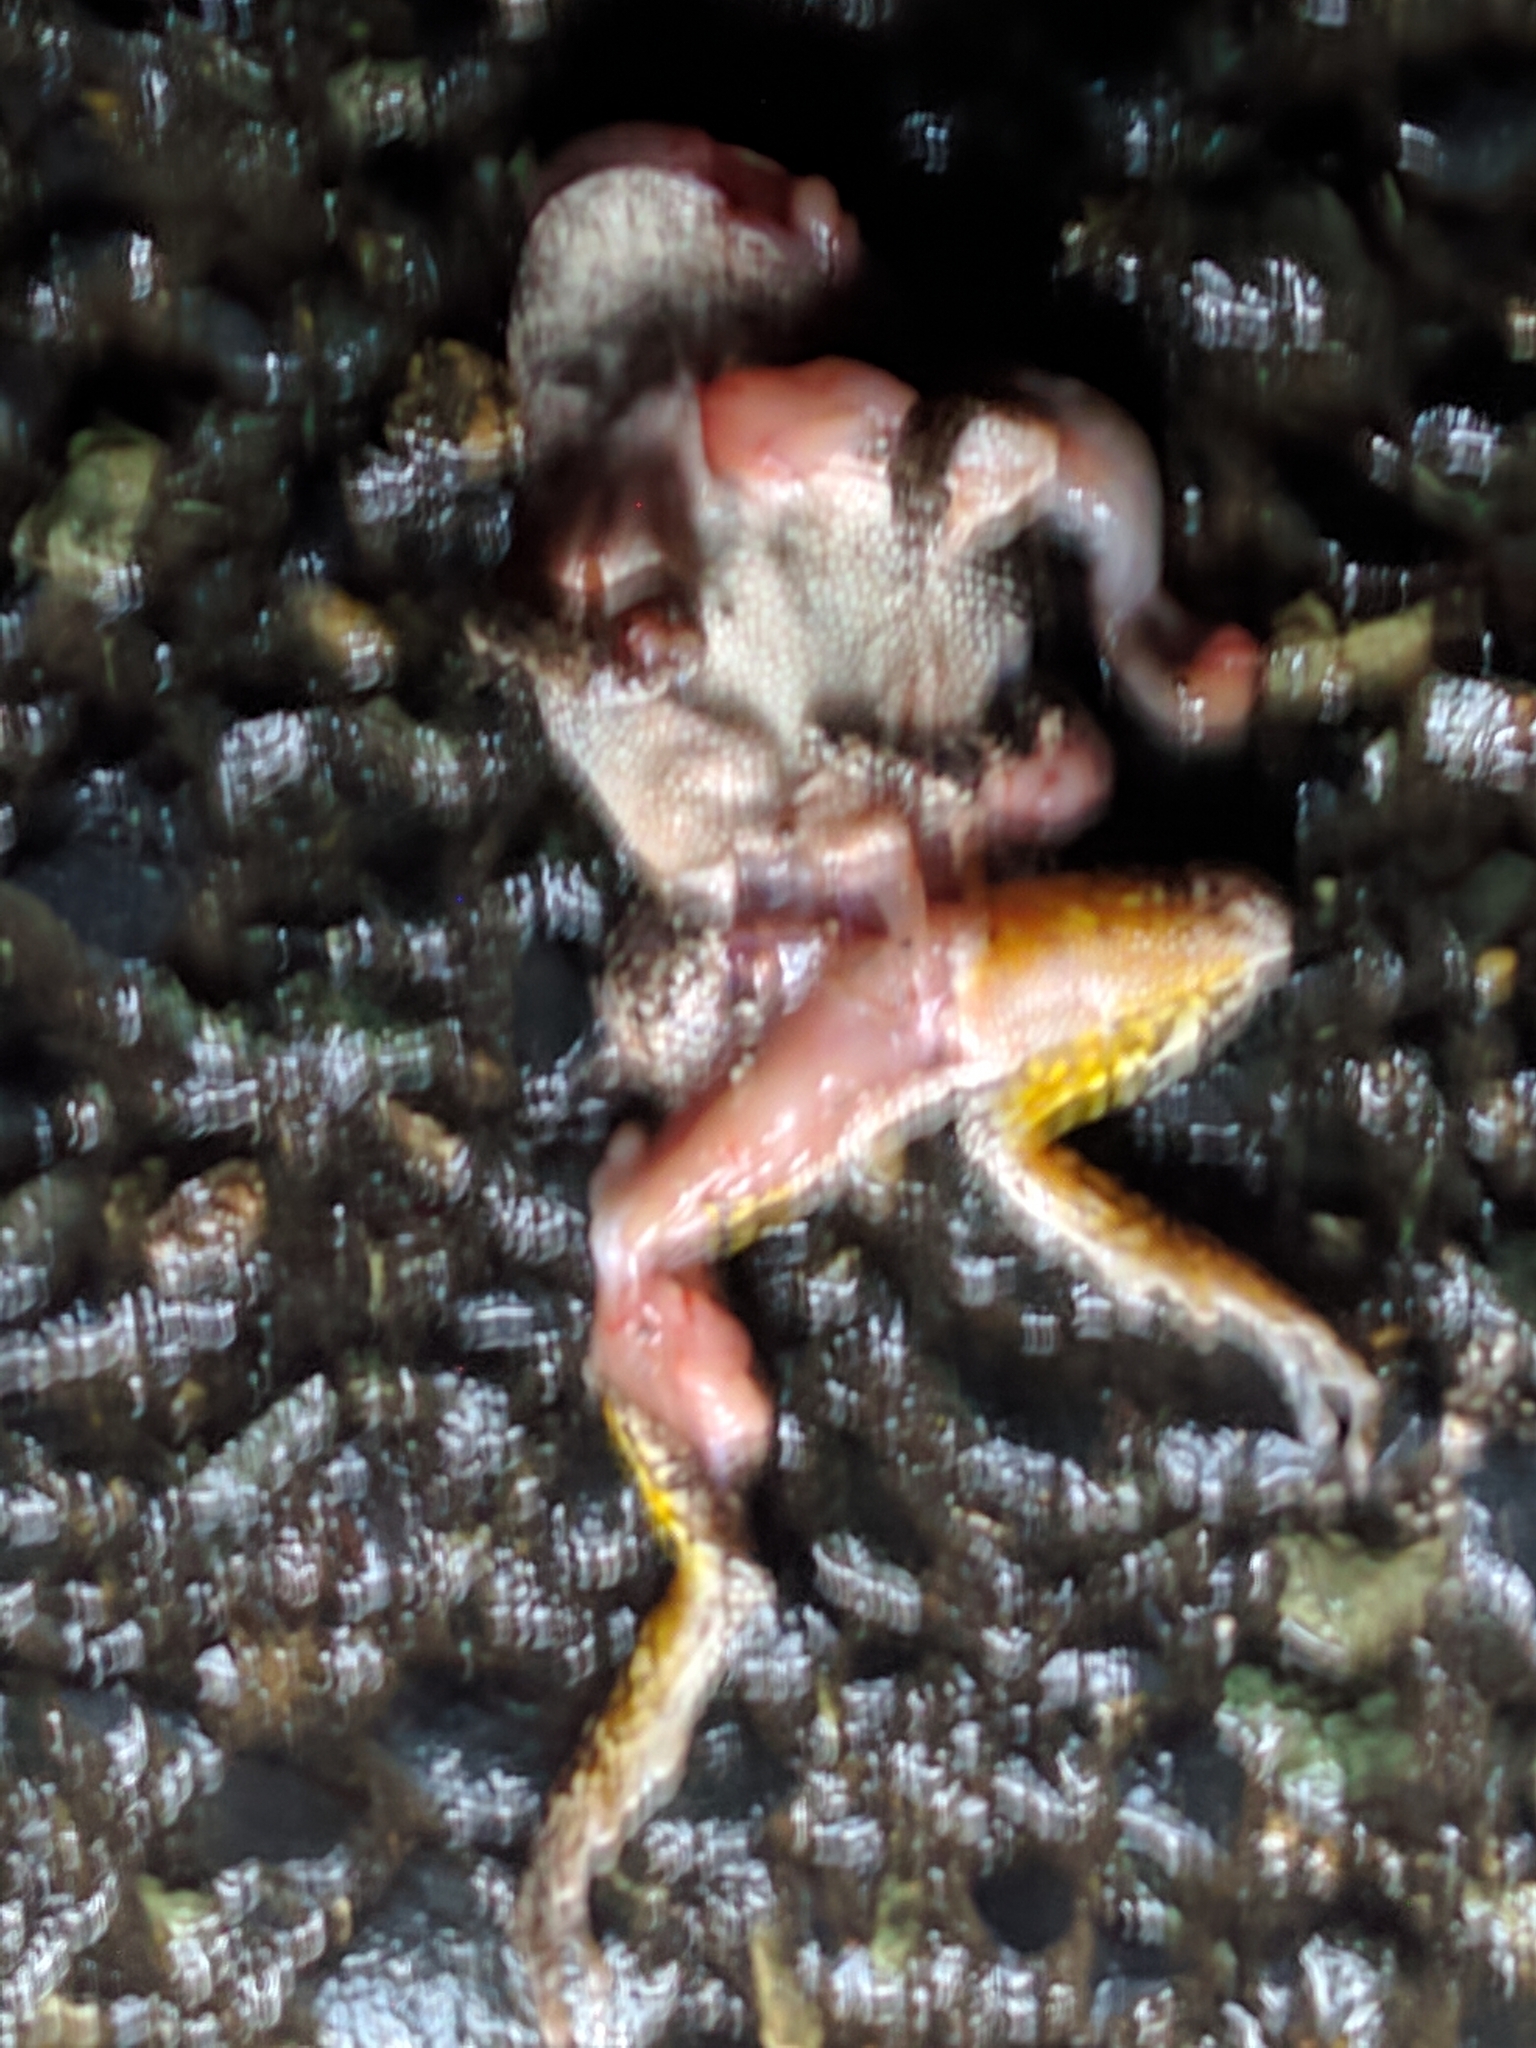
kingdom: Animalia
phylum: Chordata
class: Amphibia
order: Anura
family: Hylidae
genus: Dryophytes
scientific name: Dryophytes versicolor
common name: Gray treefrog
